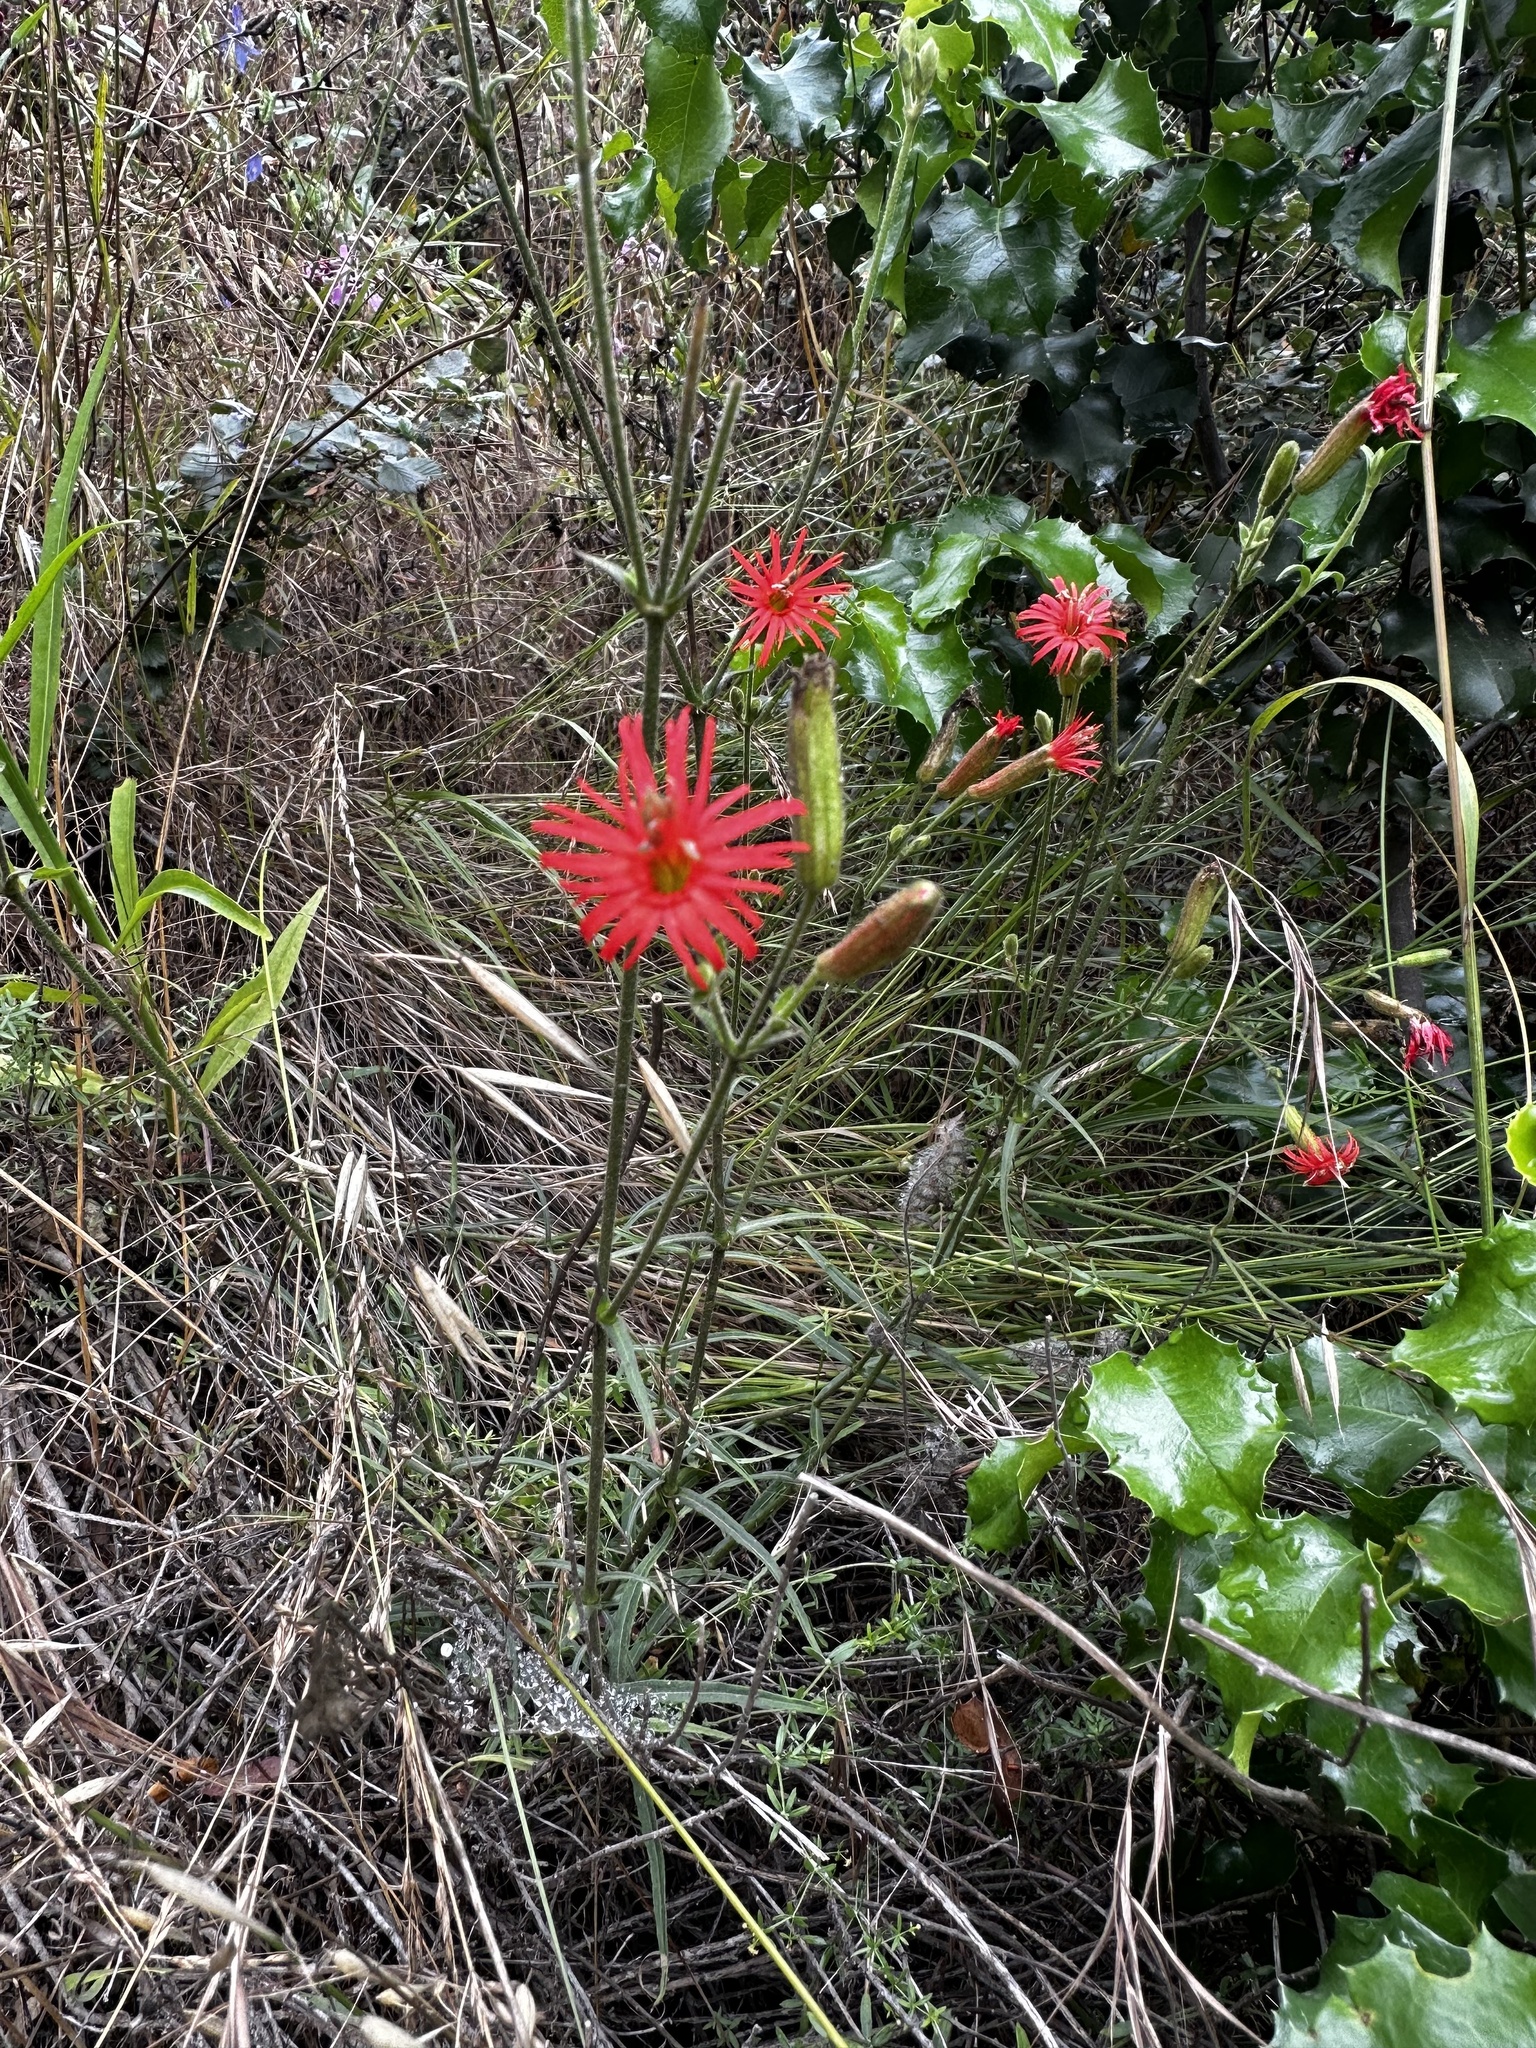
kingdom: Plantae
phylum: Tracheophyta
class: Magnoliopsida
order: Caryophyllales
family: Caryophyllaceae
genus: Silene
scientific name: Silene laciniata
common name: Indian-pink
